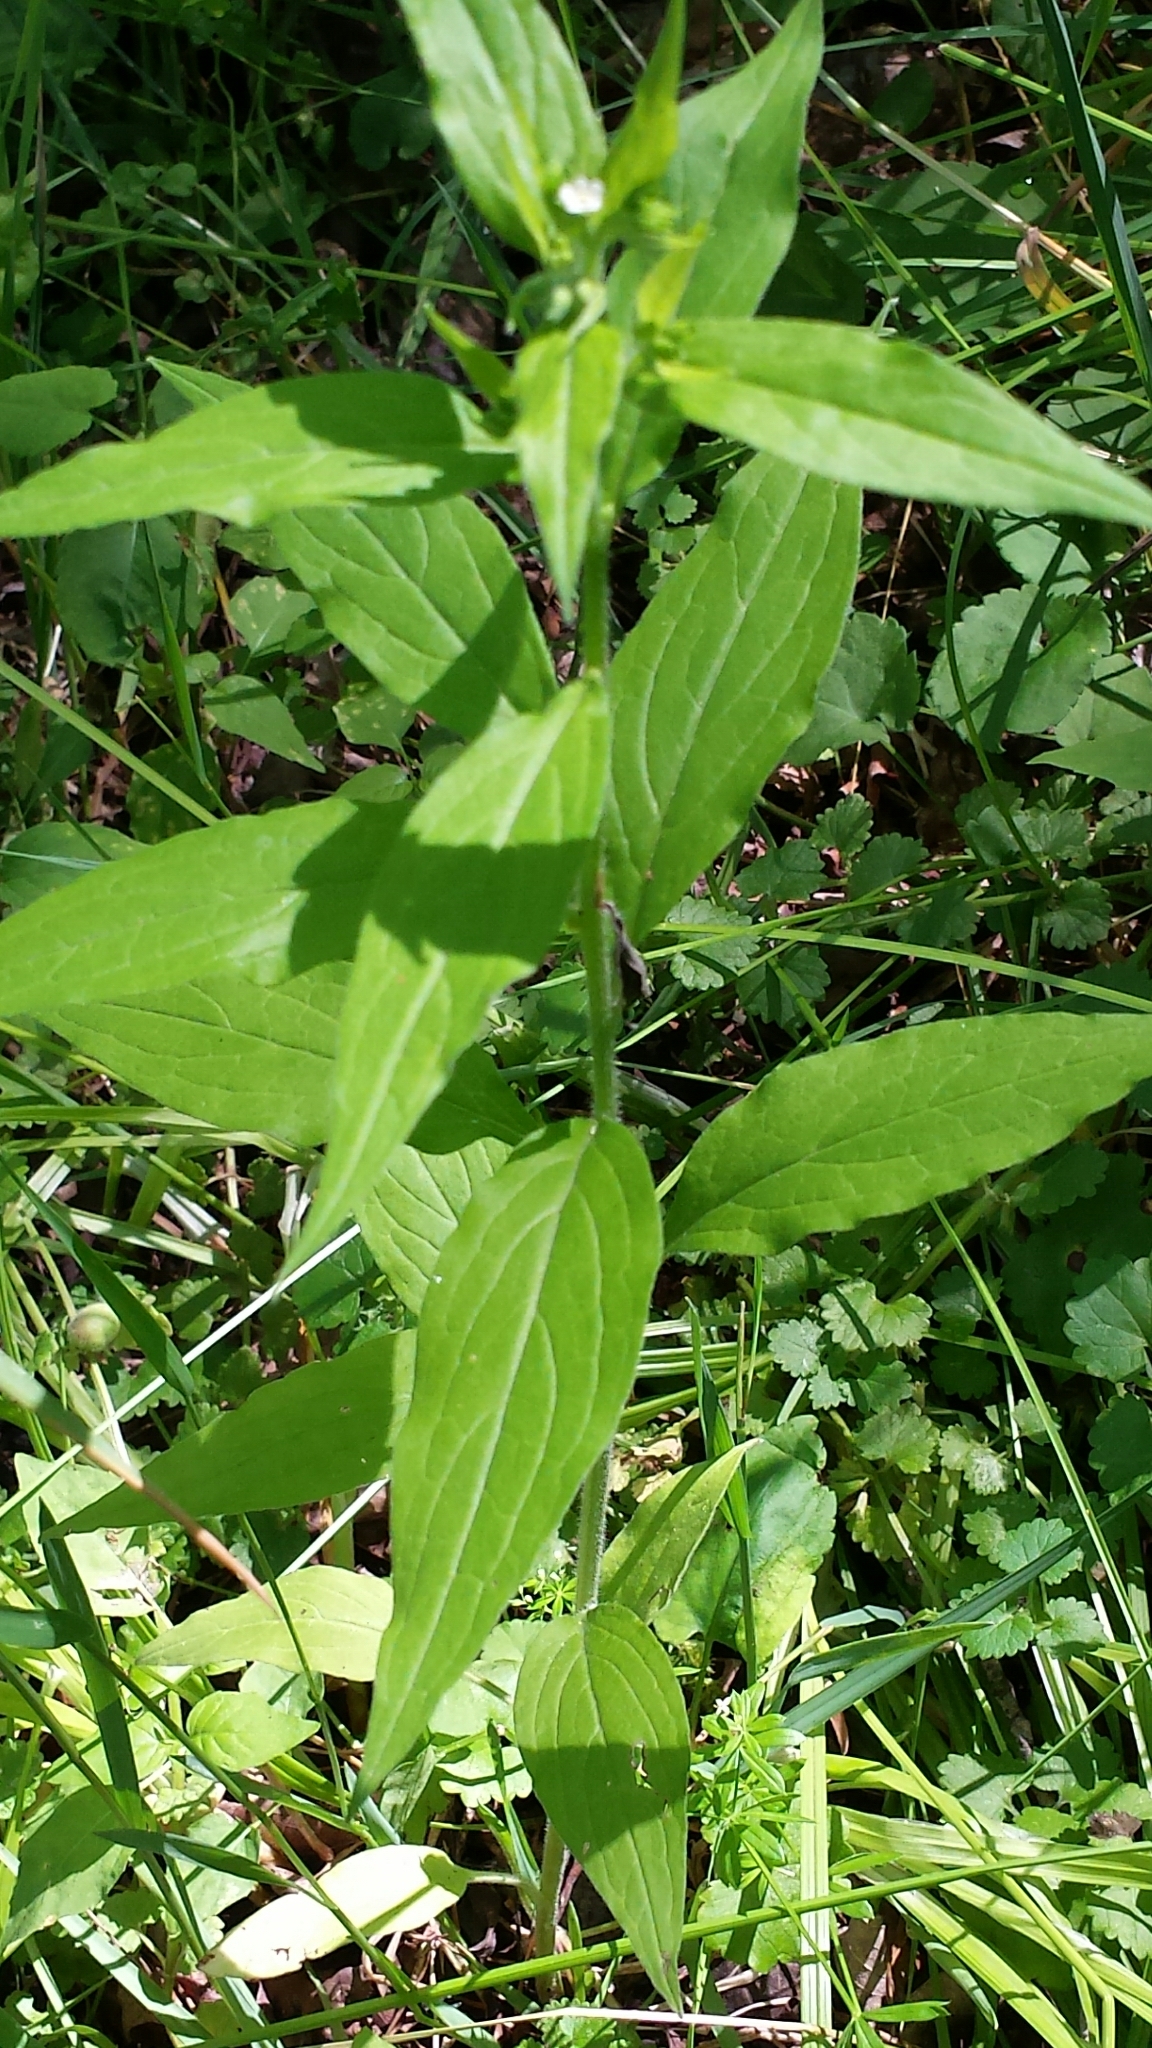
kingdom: Plantae
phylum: Tracheophyta
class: Magnoliopsida
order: Boraginales
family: Boraginaceae
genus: Hackelia
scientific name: Hackelia virginiana
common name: Beggar's-lice
